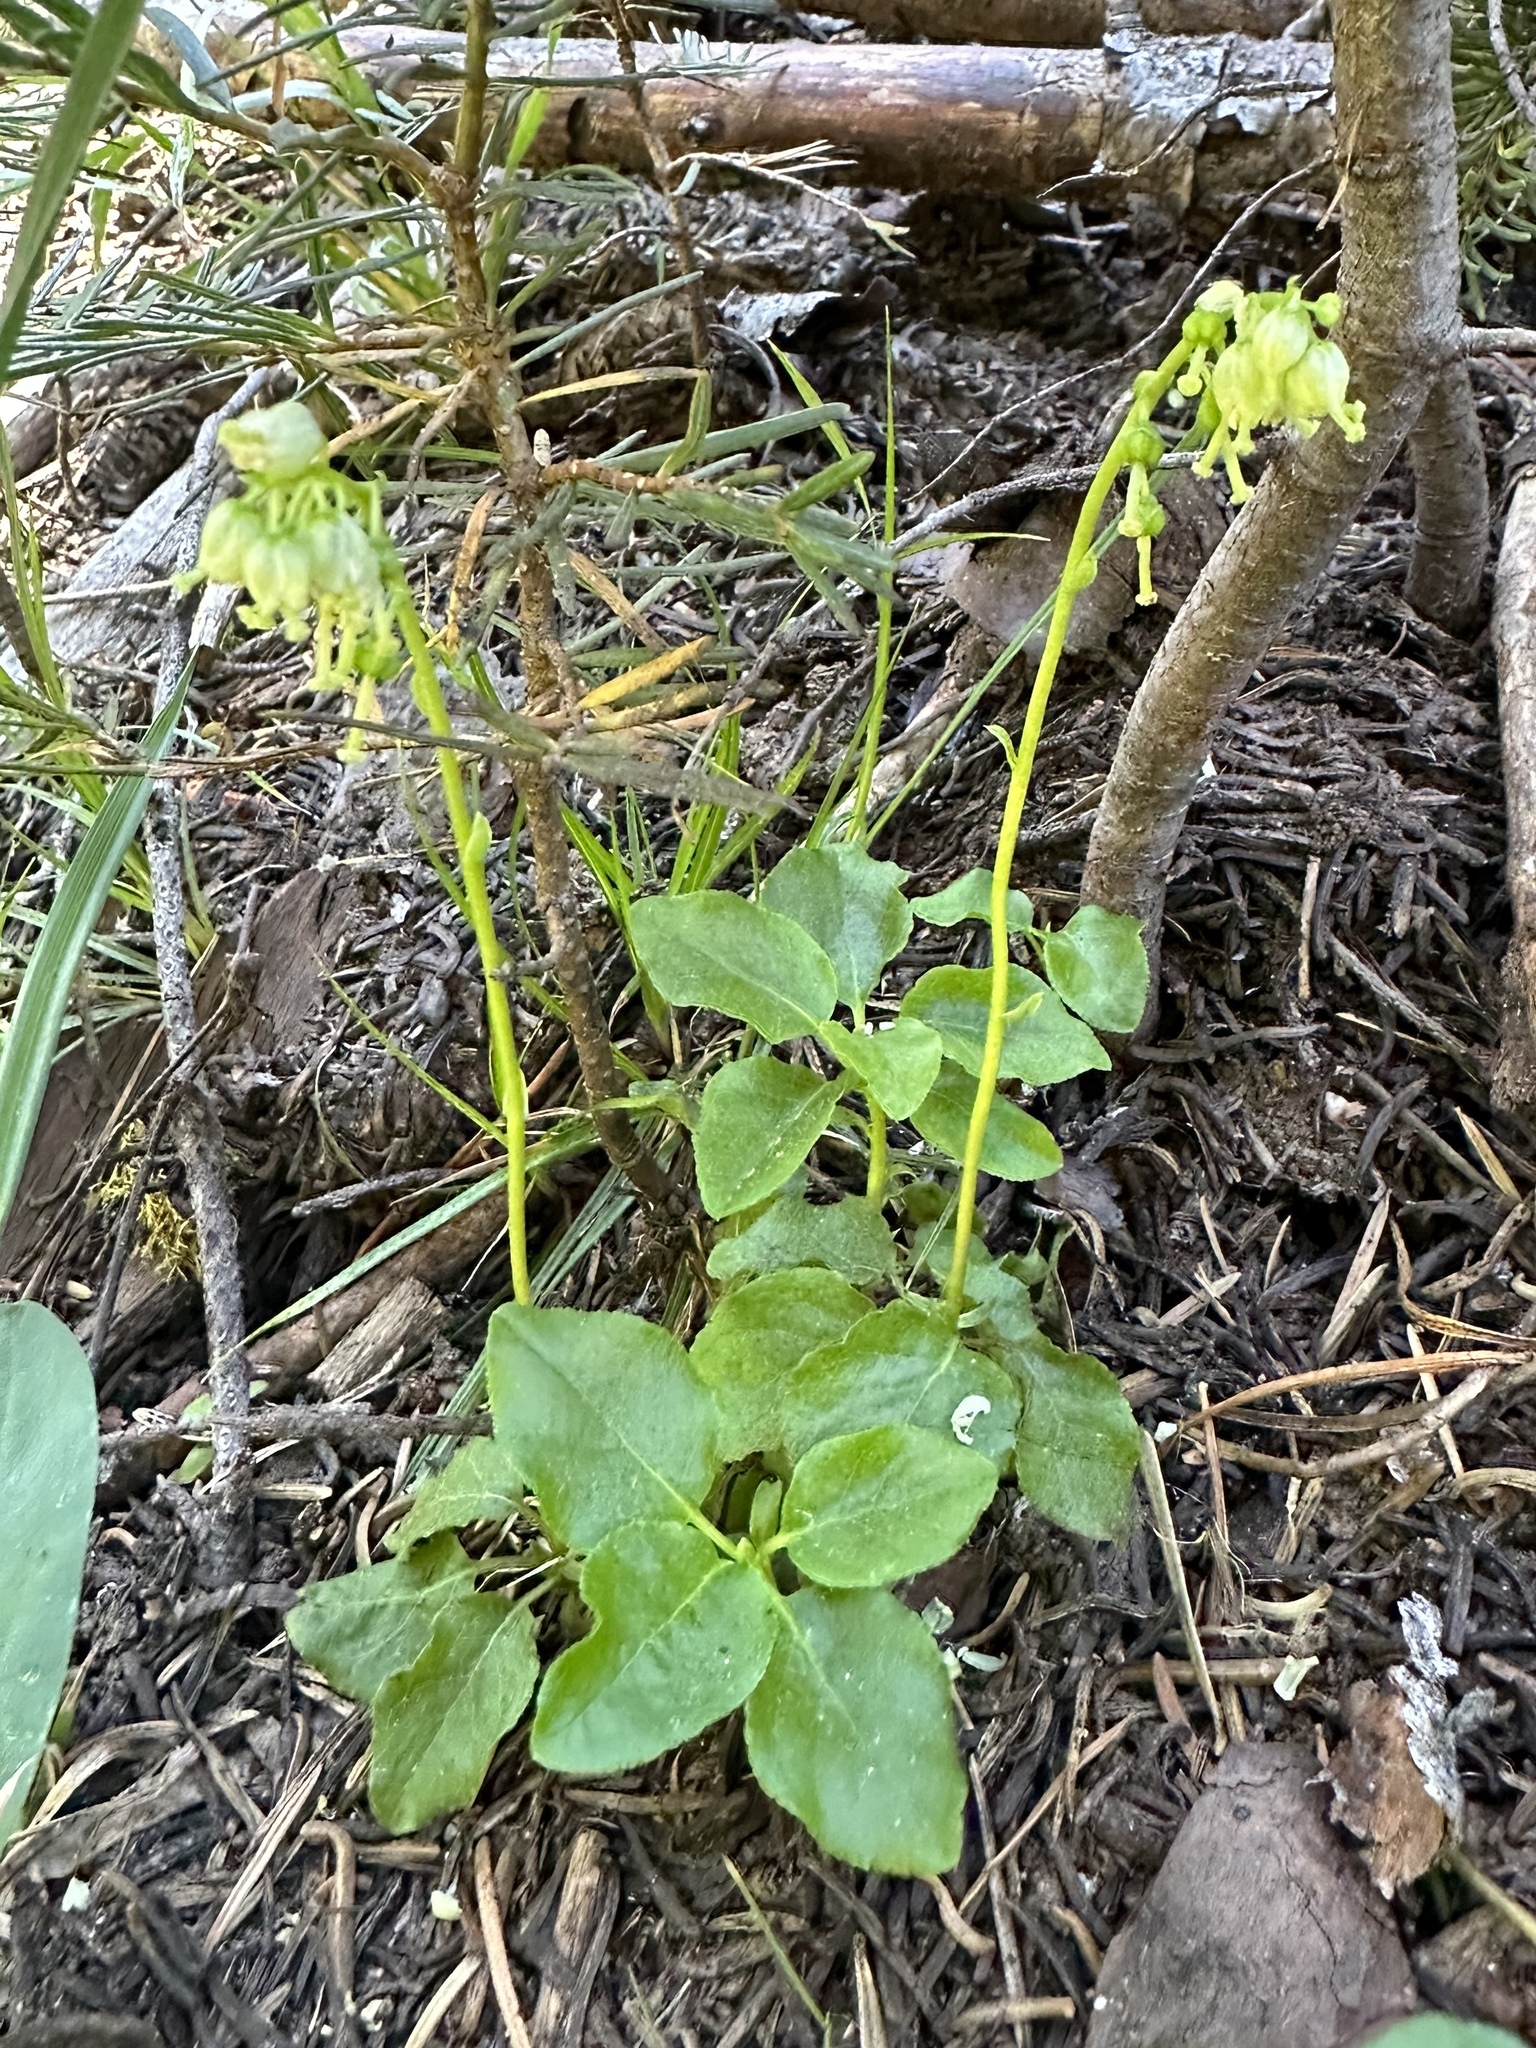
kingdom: Plantae
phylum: Tracheophyta
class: Magnoliopsida
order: Ericales
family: Ericaceae
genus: Orthilia
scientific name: Orthilia secunda
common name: One-sided orthilia
